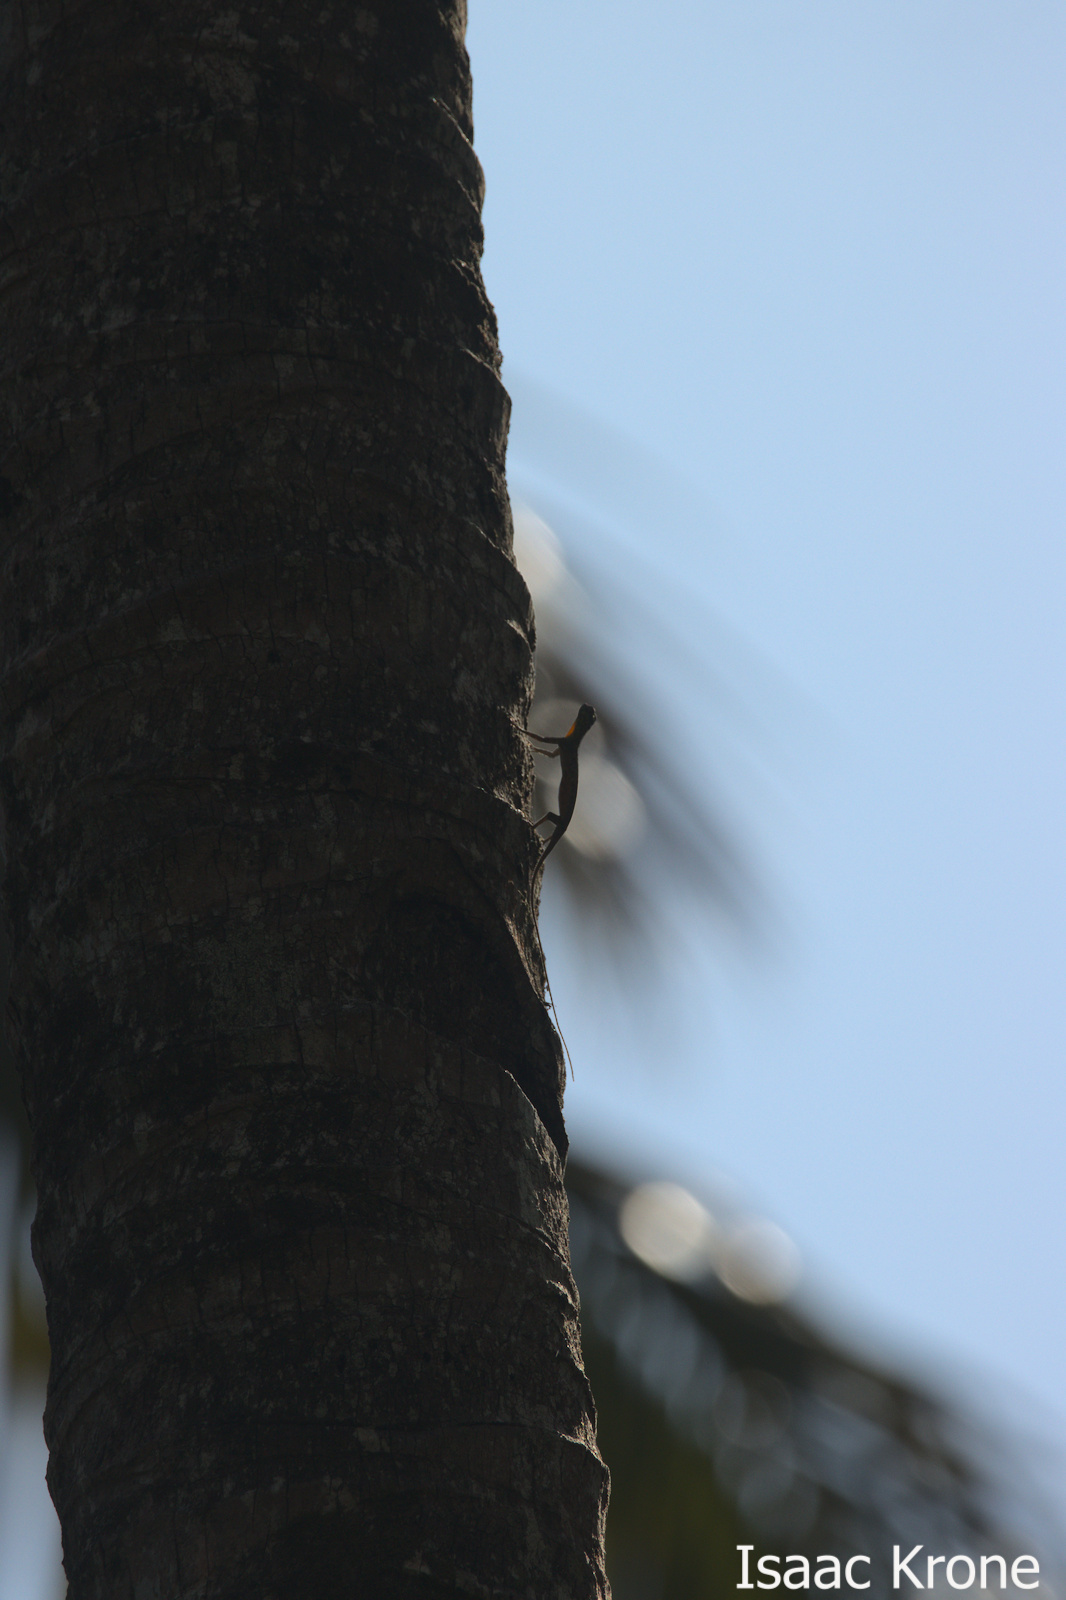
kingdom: Animalia
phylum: Chordata
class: Squamata
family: Agamidae
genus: Draco
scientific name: Draco spilonotus
